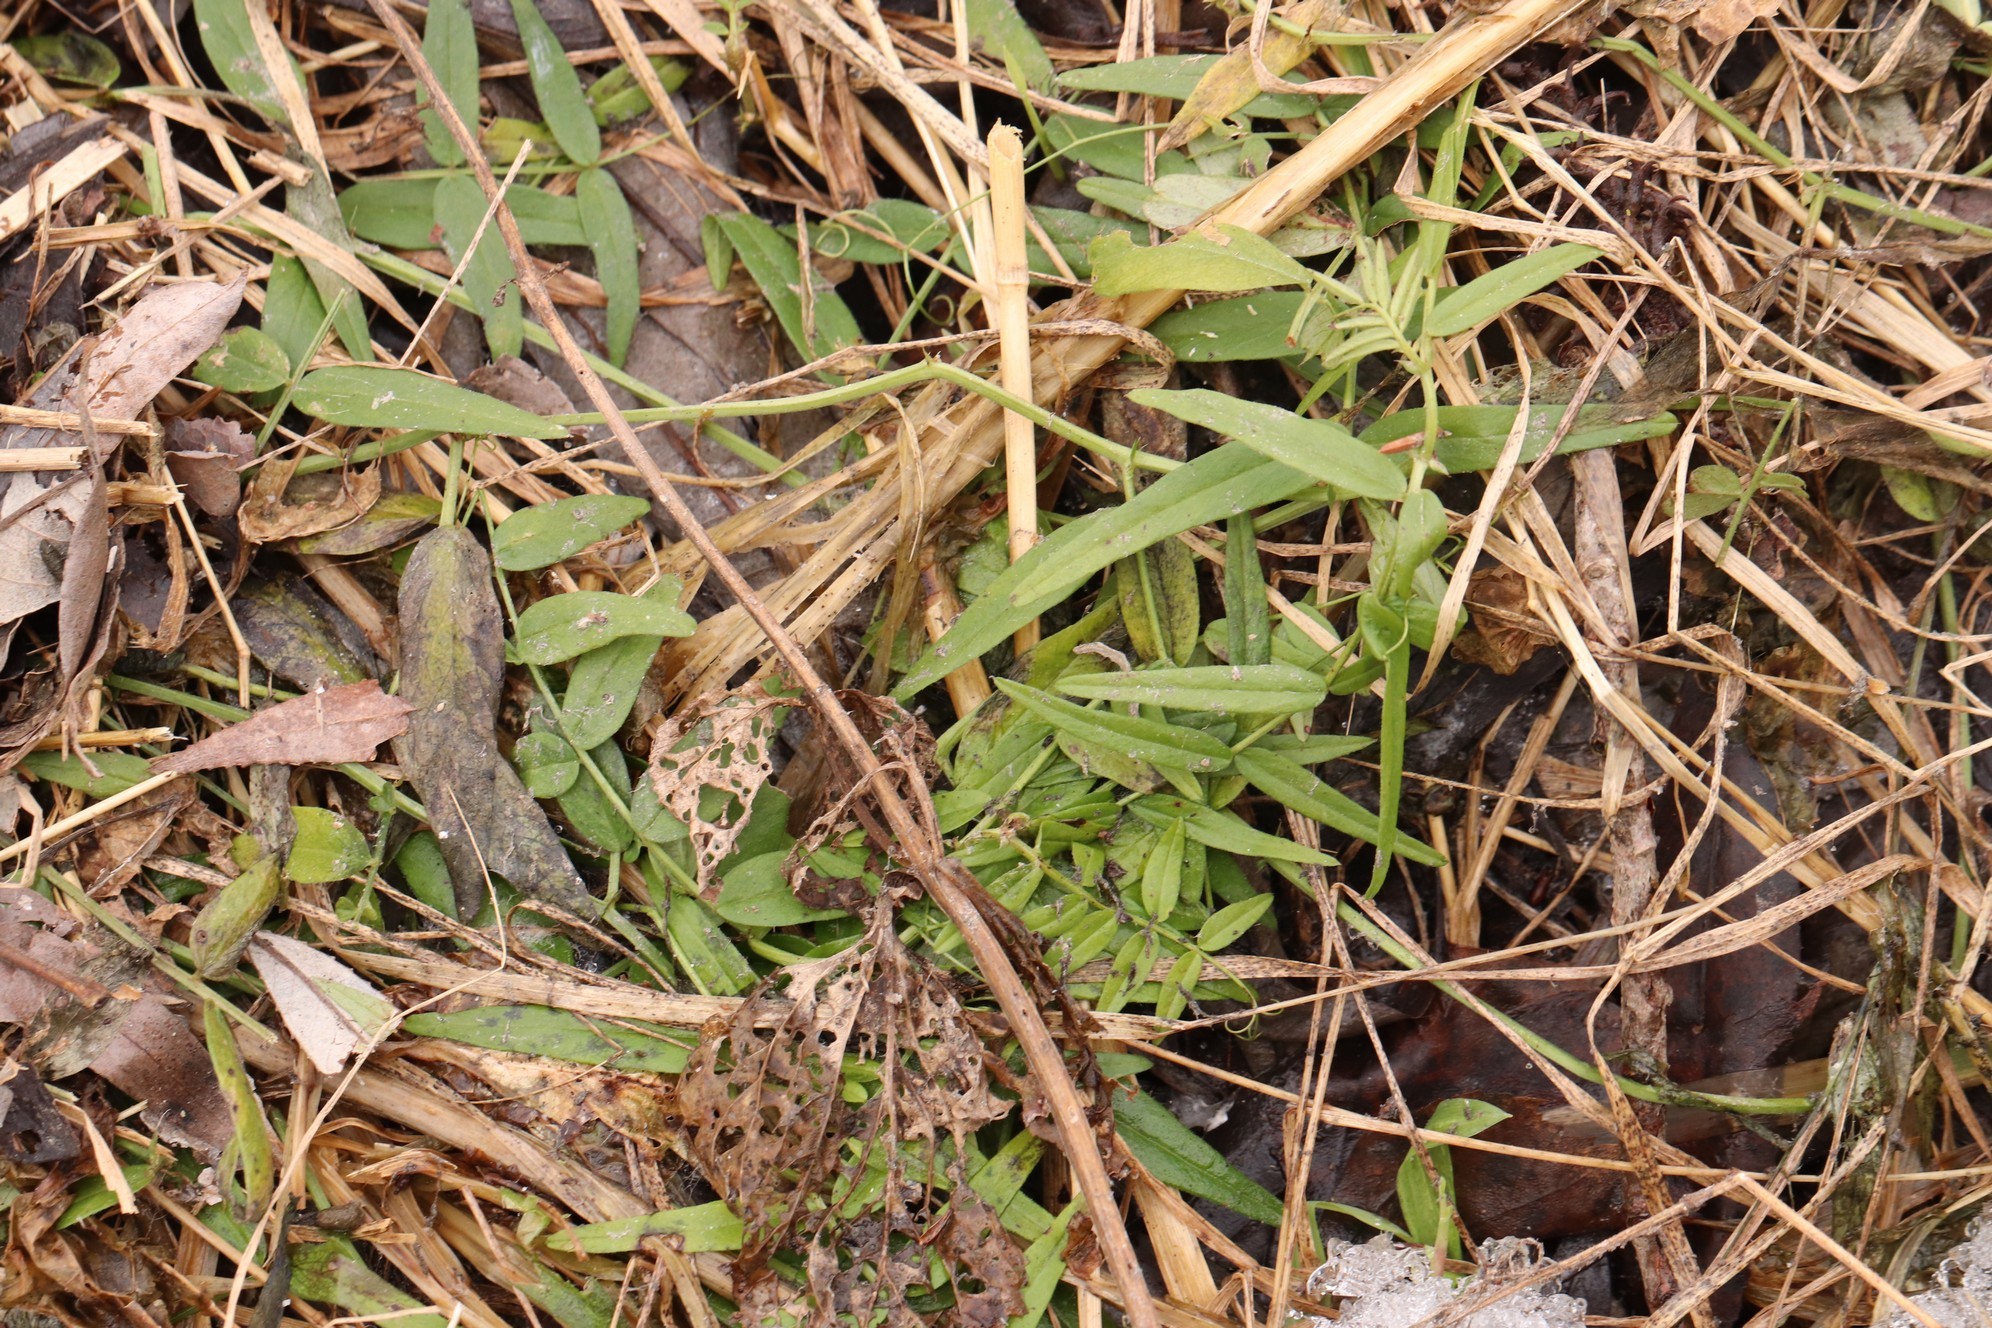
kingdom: Plantae
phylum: Tracheophyta
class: Magnoliopsida
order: Fabales
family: Fabaceae
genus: Vicia
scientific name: Vicia sepium
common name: Bush vetch
